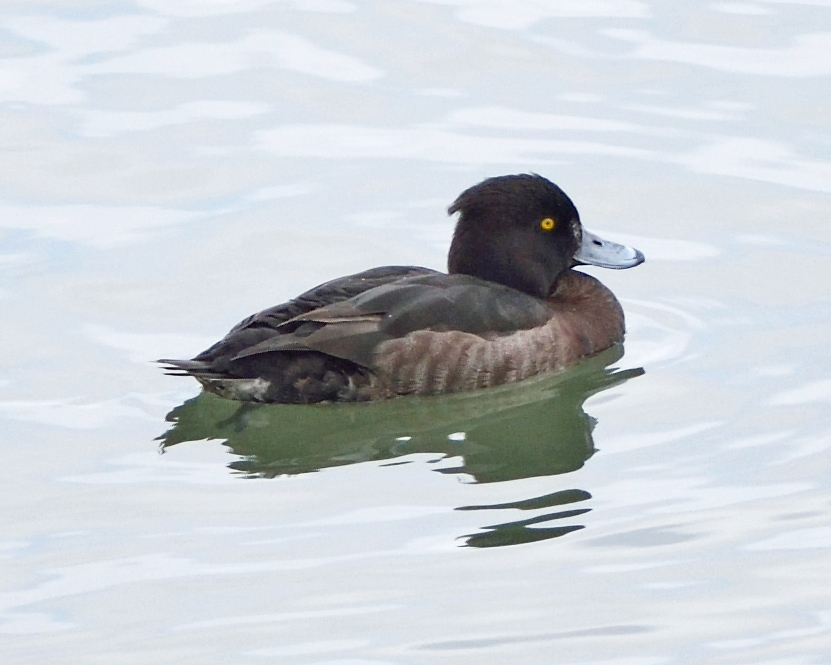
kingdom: Animalia
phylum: Chordata
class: Aves
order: Anseriformes
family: Anatidae
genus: Aythya
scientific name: Aythya fuligula
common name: Tufted duck
